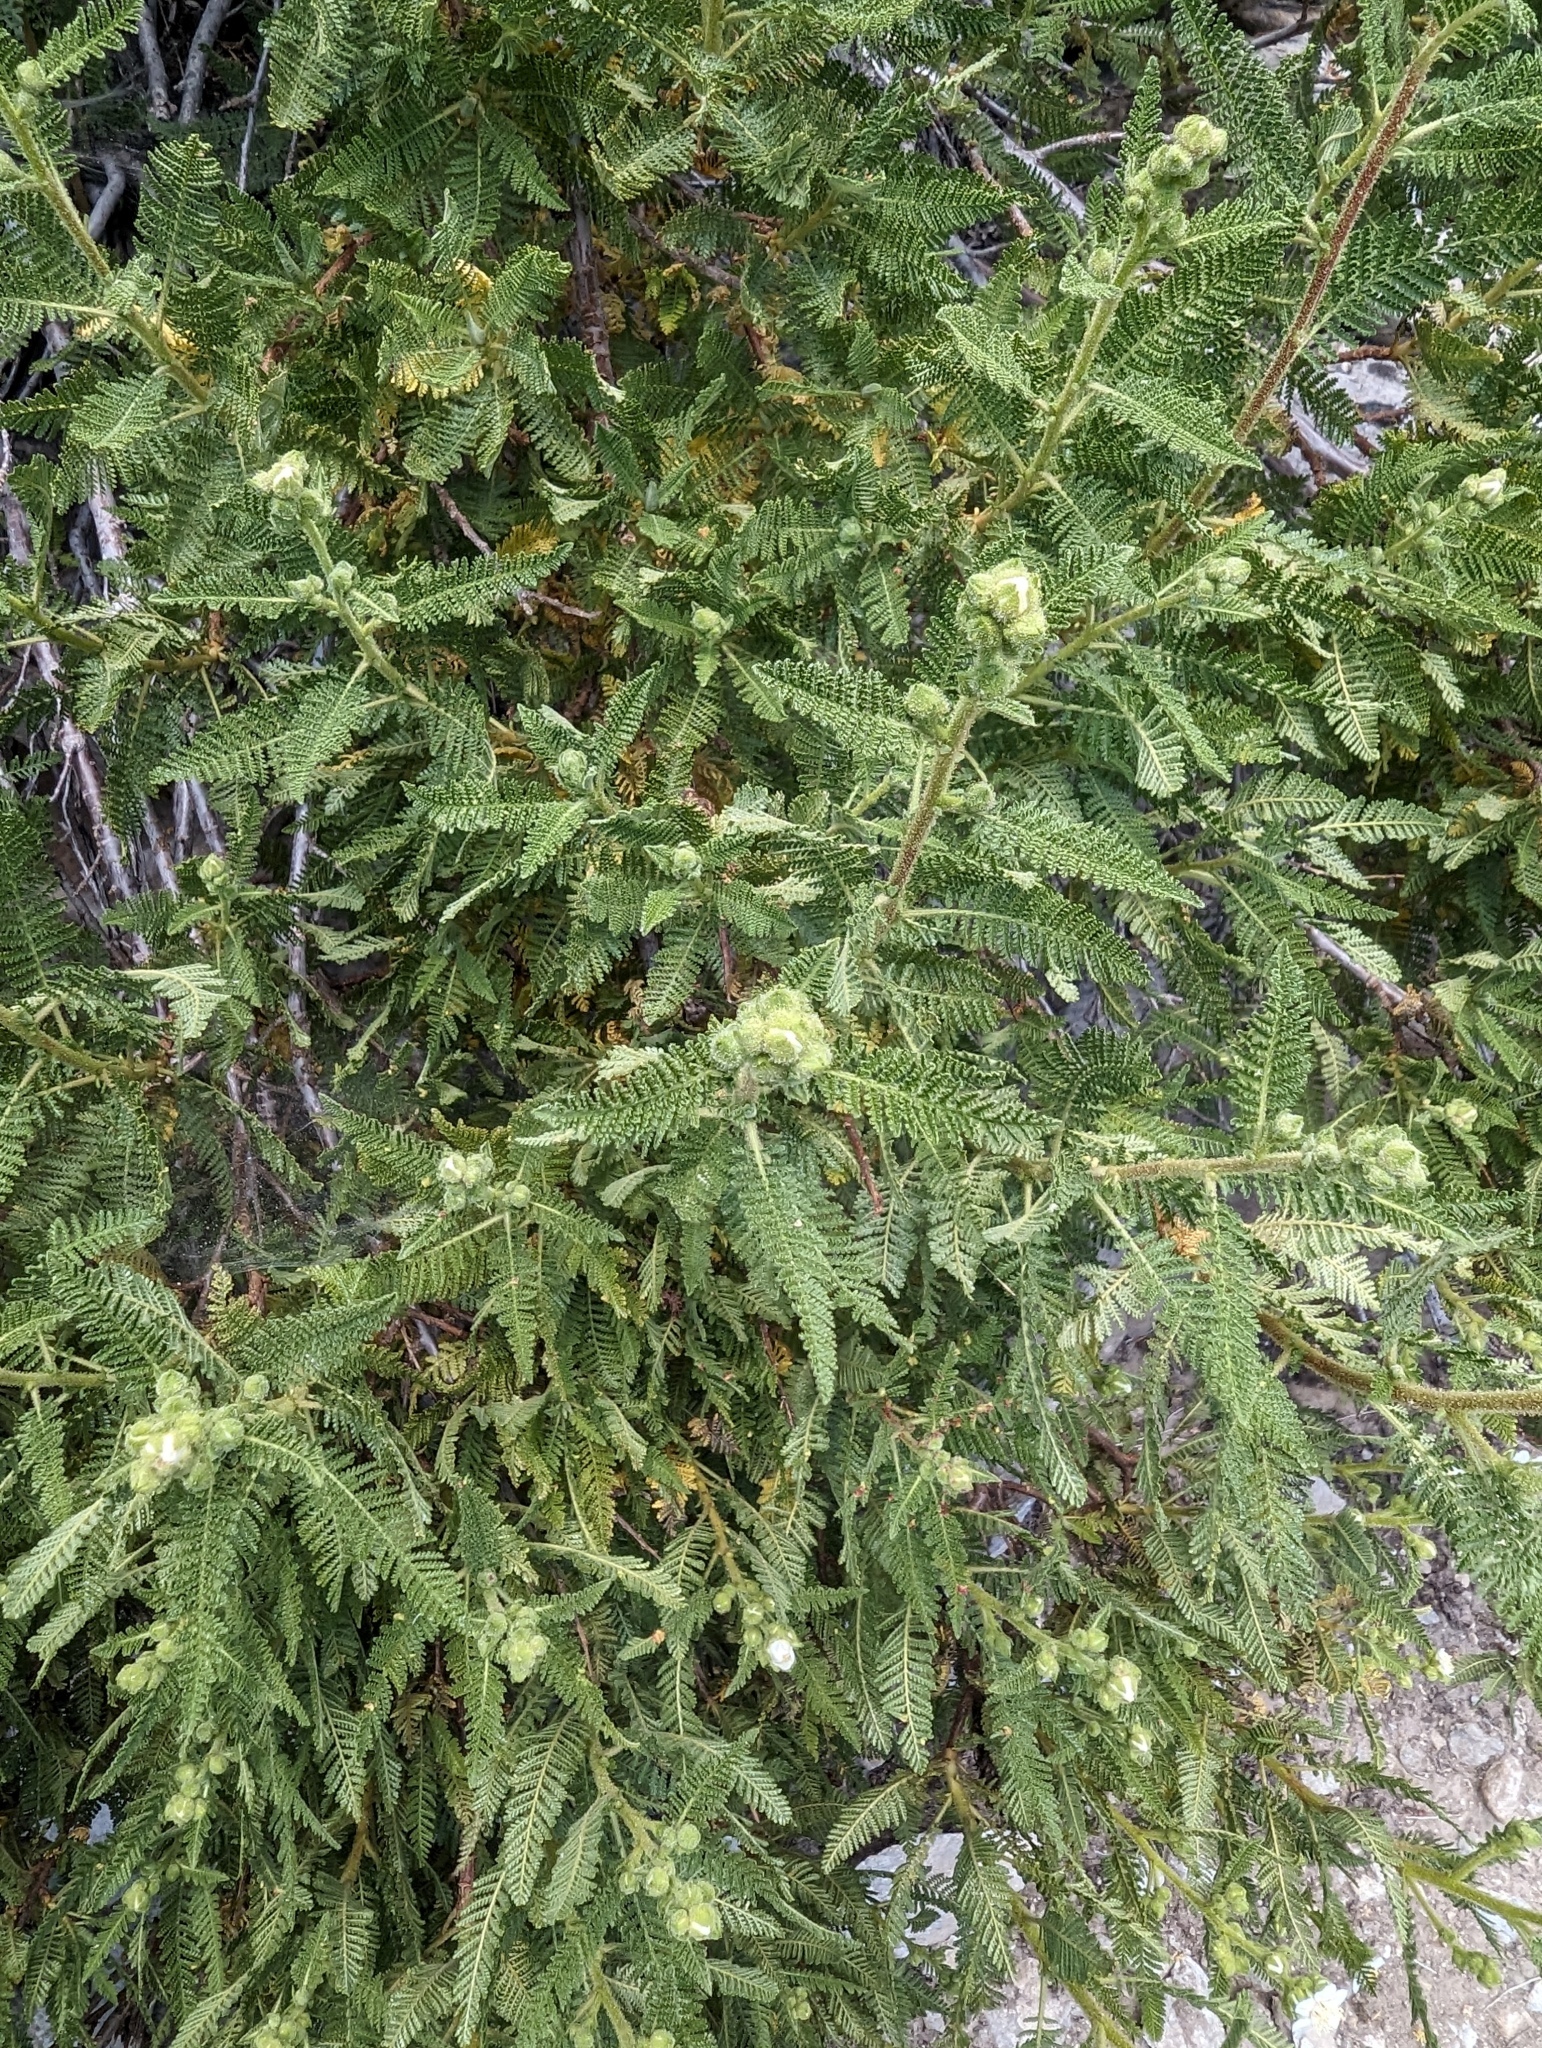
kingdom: Plantae
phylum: Tracheophyta
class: Magnoliopsida
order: Rosales
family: Rosaceae
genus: Chamaebatiaria
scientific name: Chamaebatiaria millefolium
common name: Fernbush
